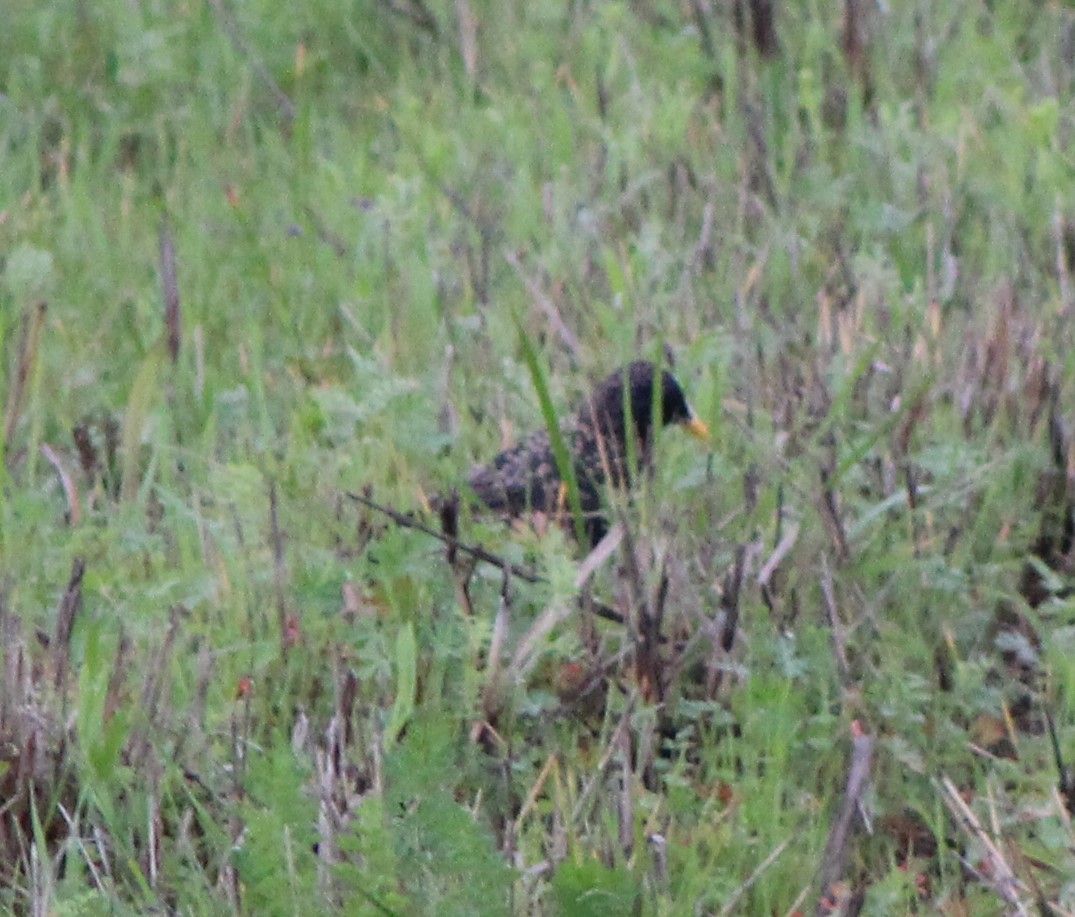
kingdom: Animalia
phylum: Chordata
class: Aves
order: Passeriformes
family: Sturnidae
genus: Sturnus
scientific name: Sturnus vulgaris
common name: Common starling
